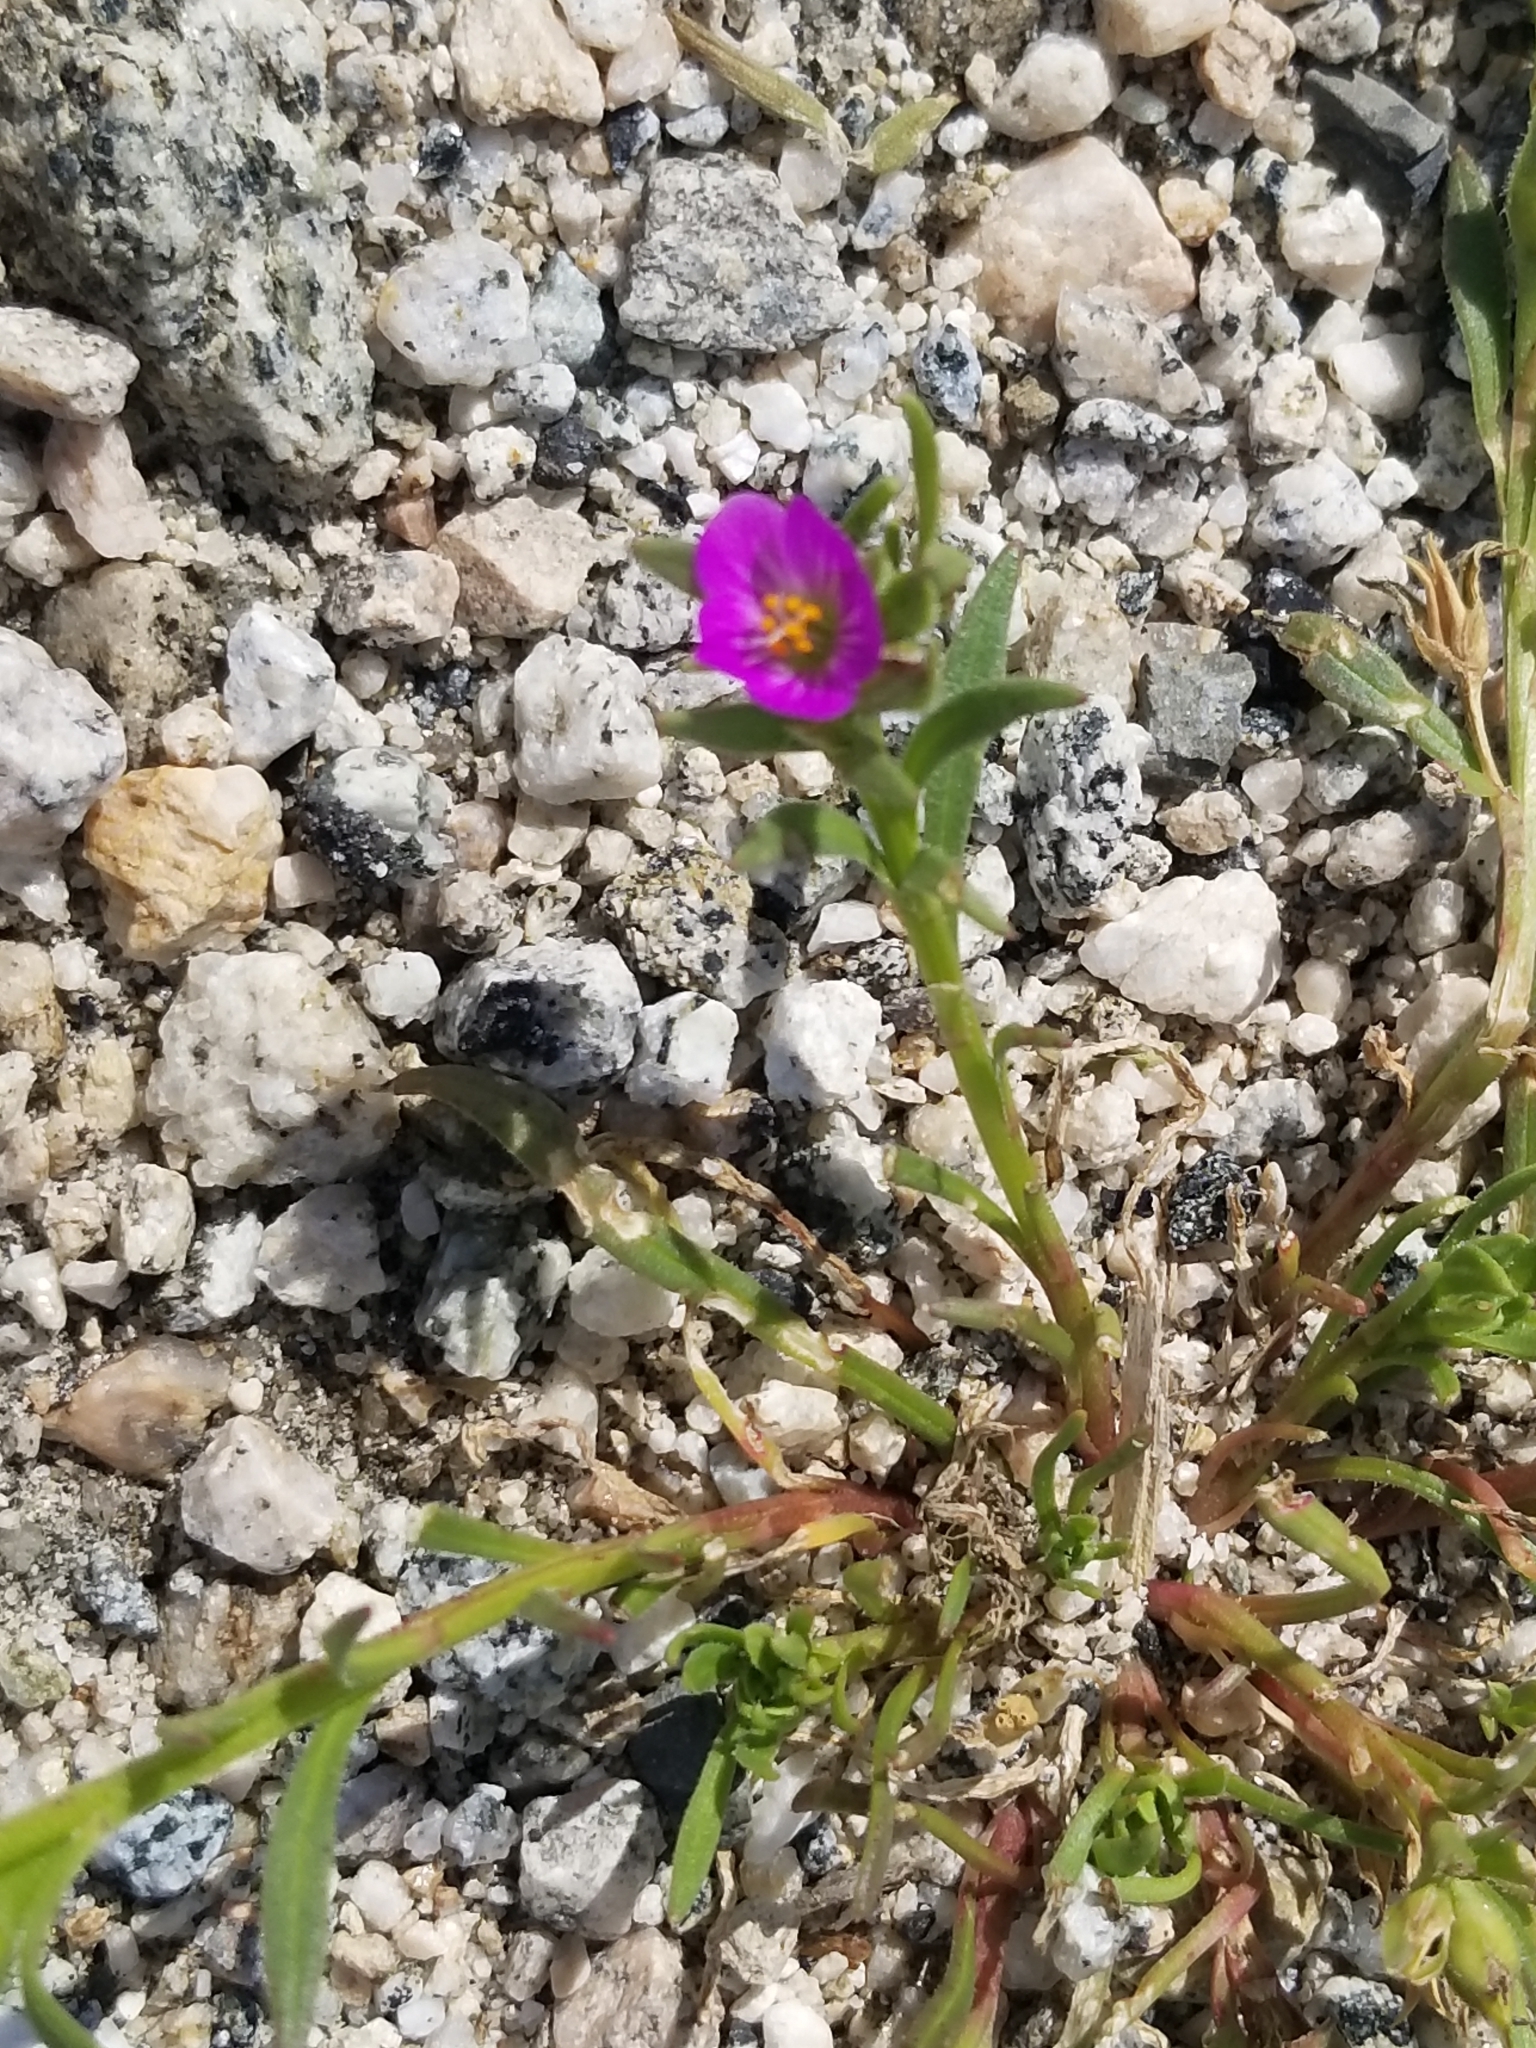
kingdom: Plantae
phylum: Tracheophyta
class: Magnoliopsida
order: Caryophyllales
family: Montiaceae
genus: Calandrinia
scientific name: Calandrinia menziesii
